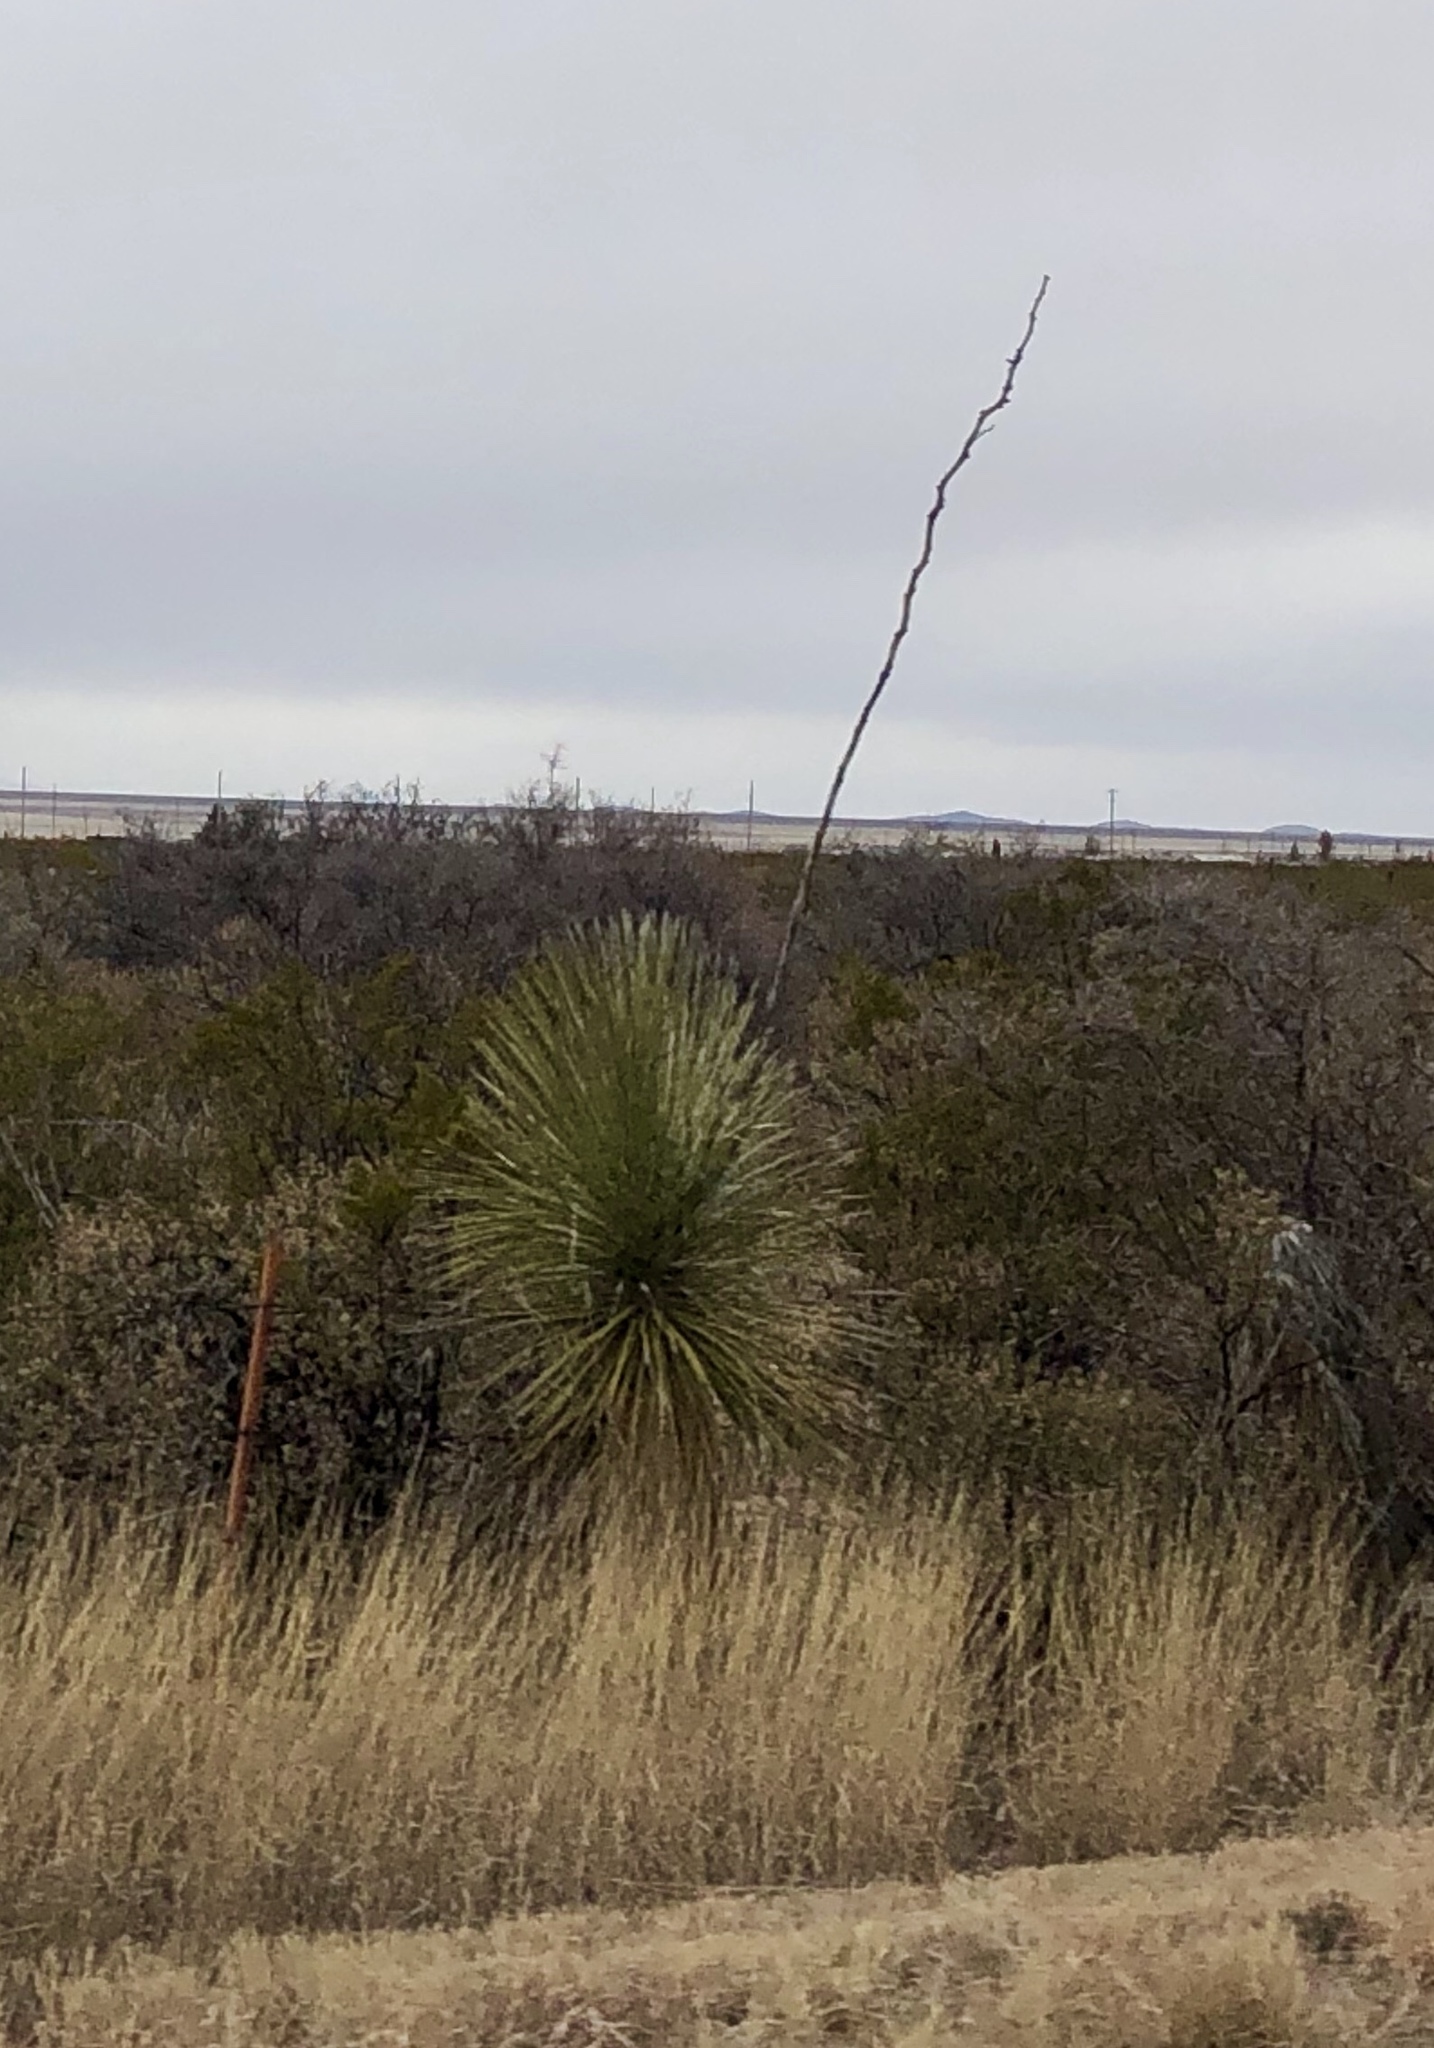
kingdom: Plantae
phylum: Tracheophyta
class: Liliopsida
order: Asparagales
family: Asparagaceae
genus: Yucca
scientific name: Yucca elata
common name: Palmella
